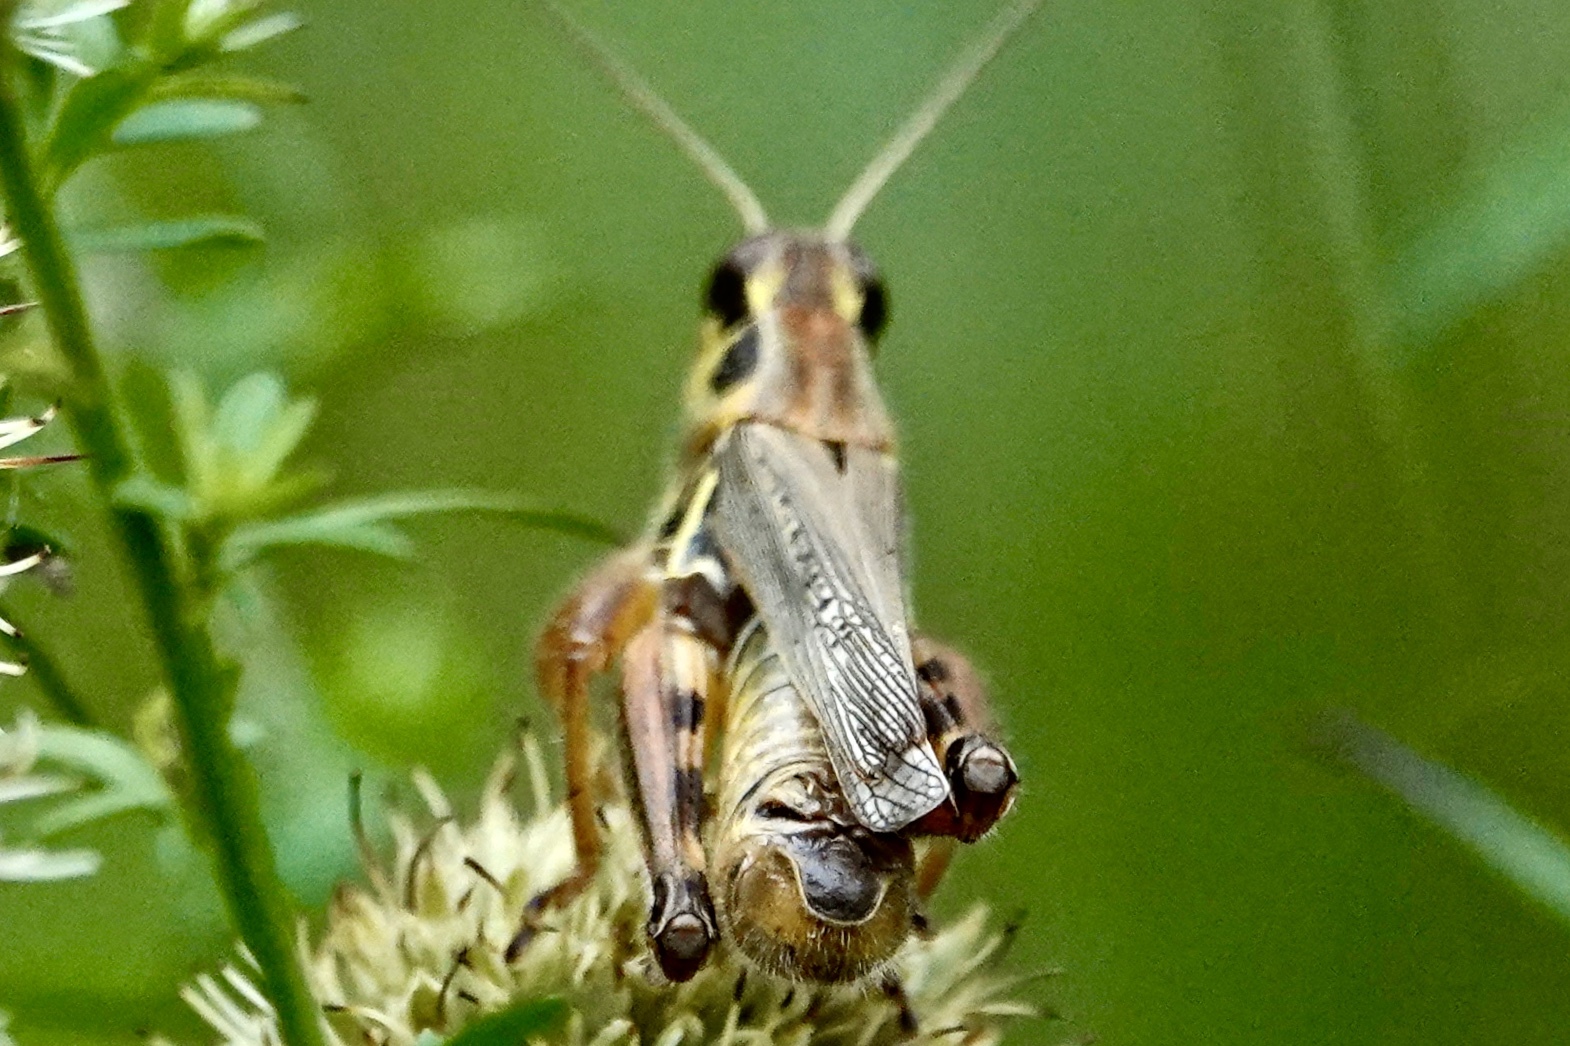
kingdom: Animalia
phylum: Arthropoda
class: Insecta
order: Orthoptera
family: Acrididae
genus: Melanoplus
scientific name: Melanoplus femurrubrum
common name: Red-legged grasshopper
